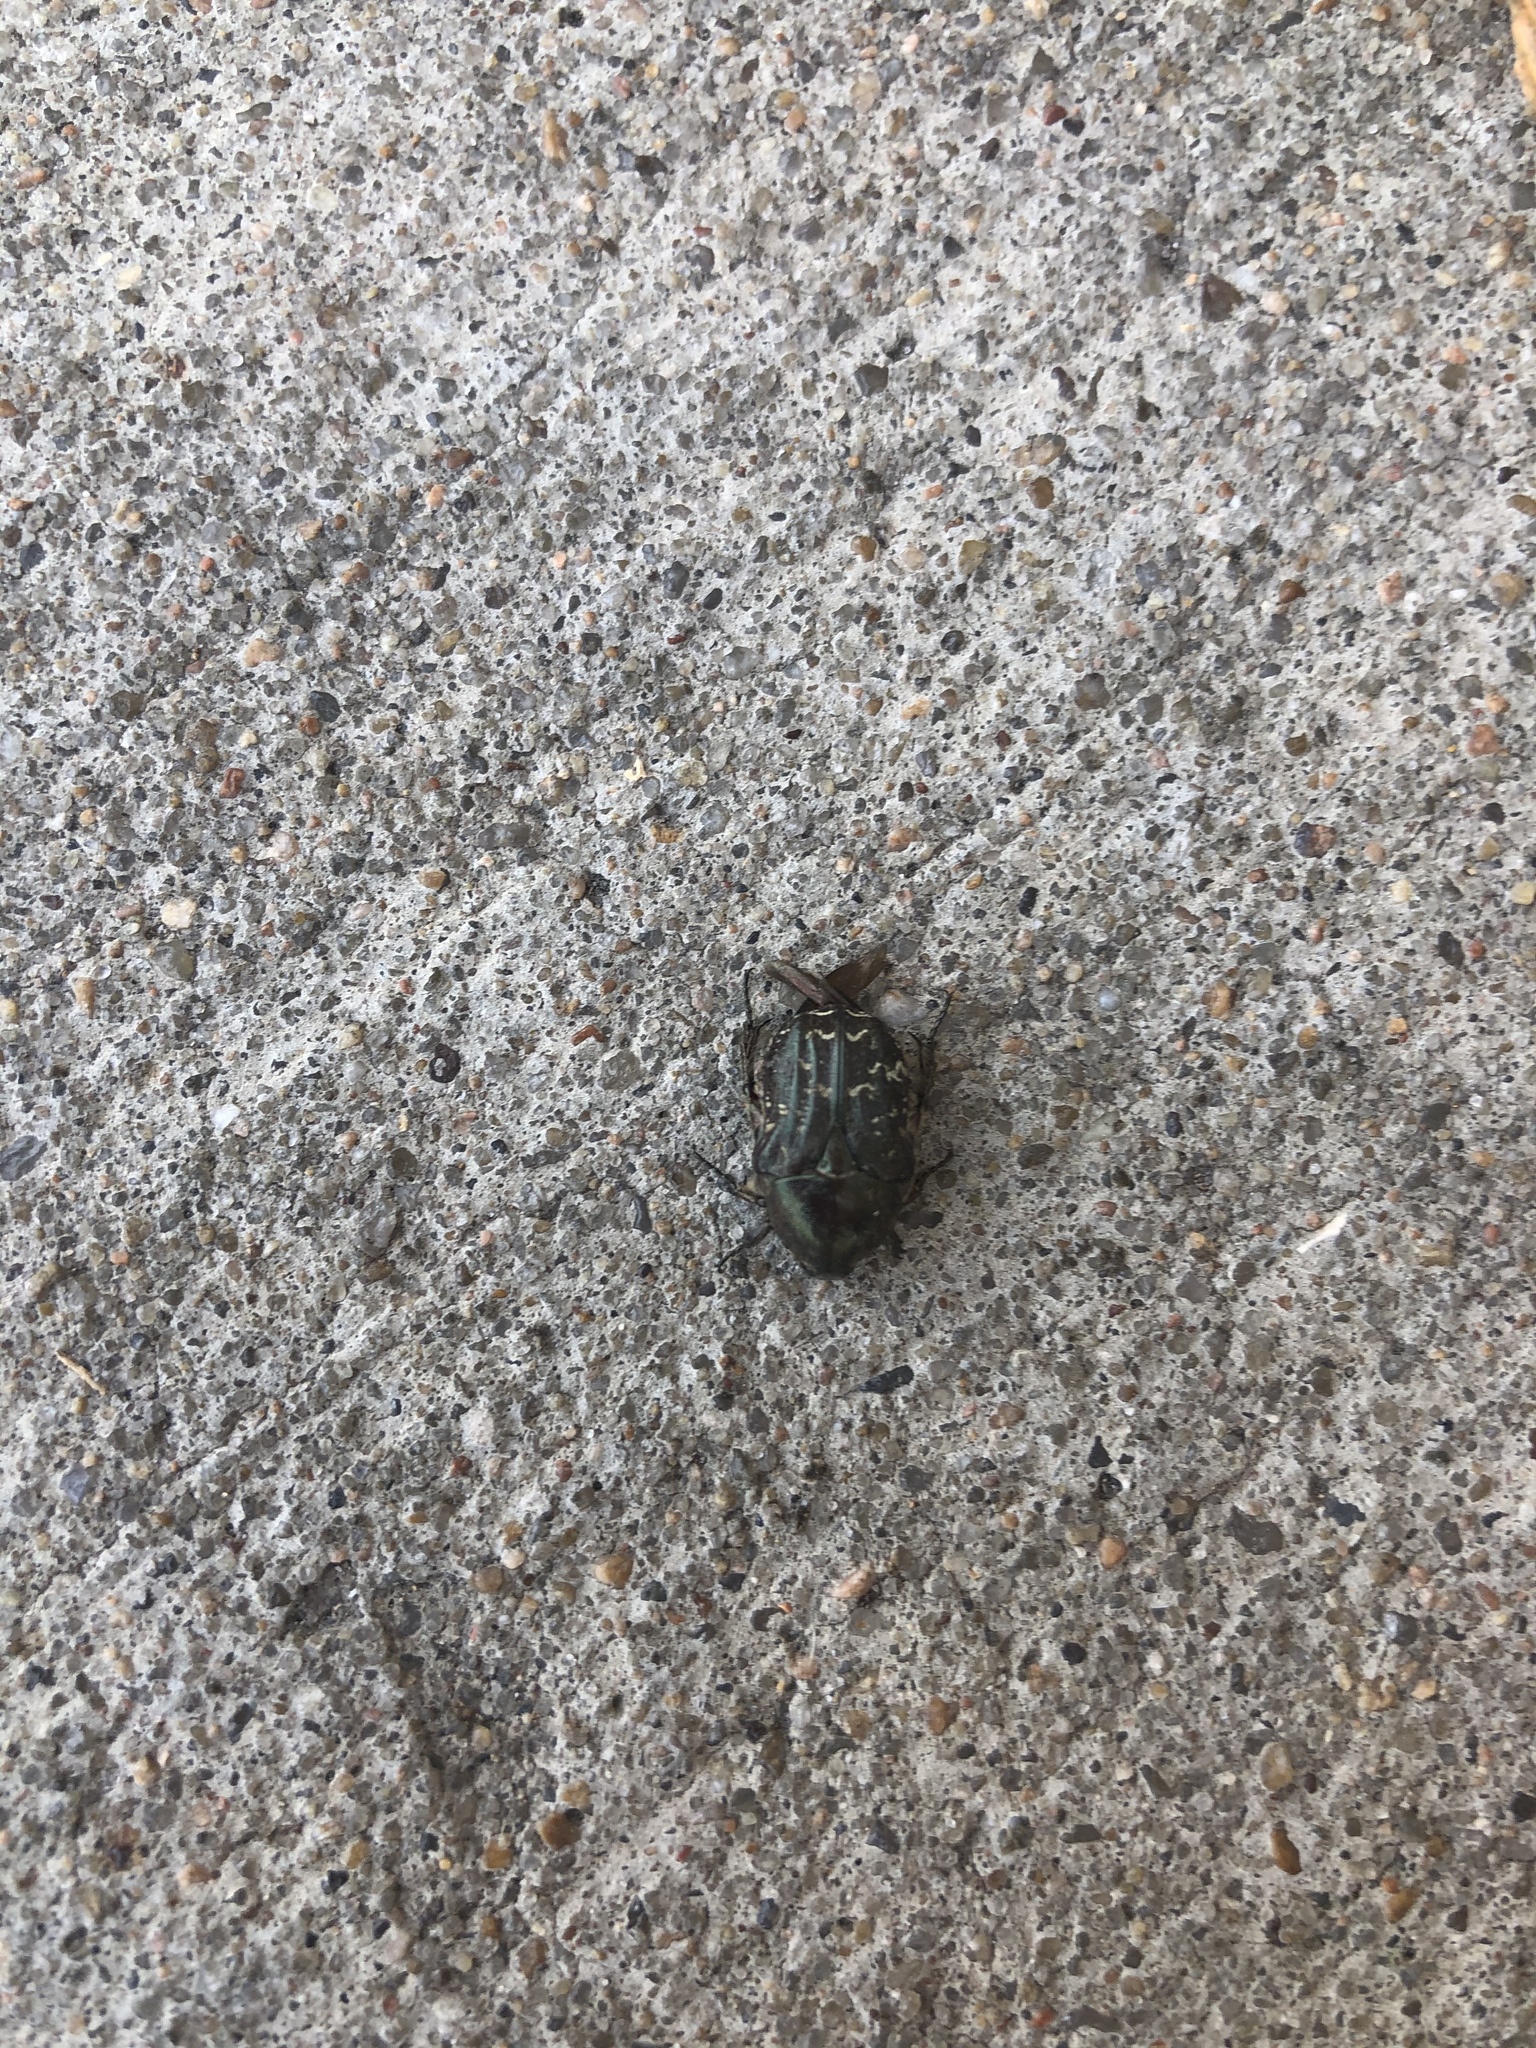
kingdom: Animalia
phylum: Arthropoda
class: Insecta
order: Coleoptera
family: Scarabaeidae
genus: Euphoria
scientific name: Euphoria sepulcralis
